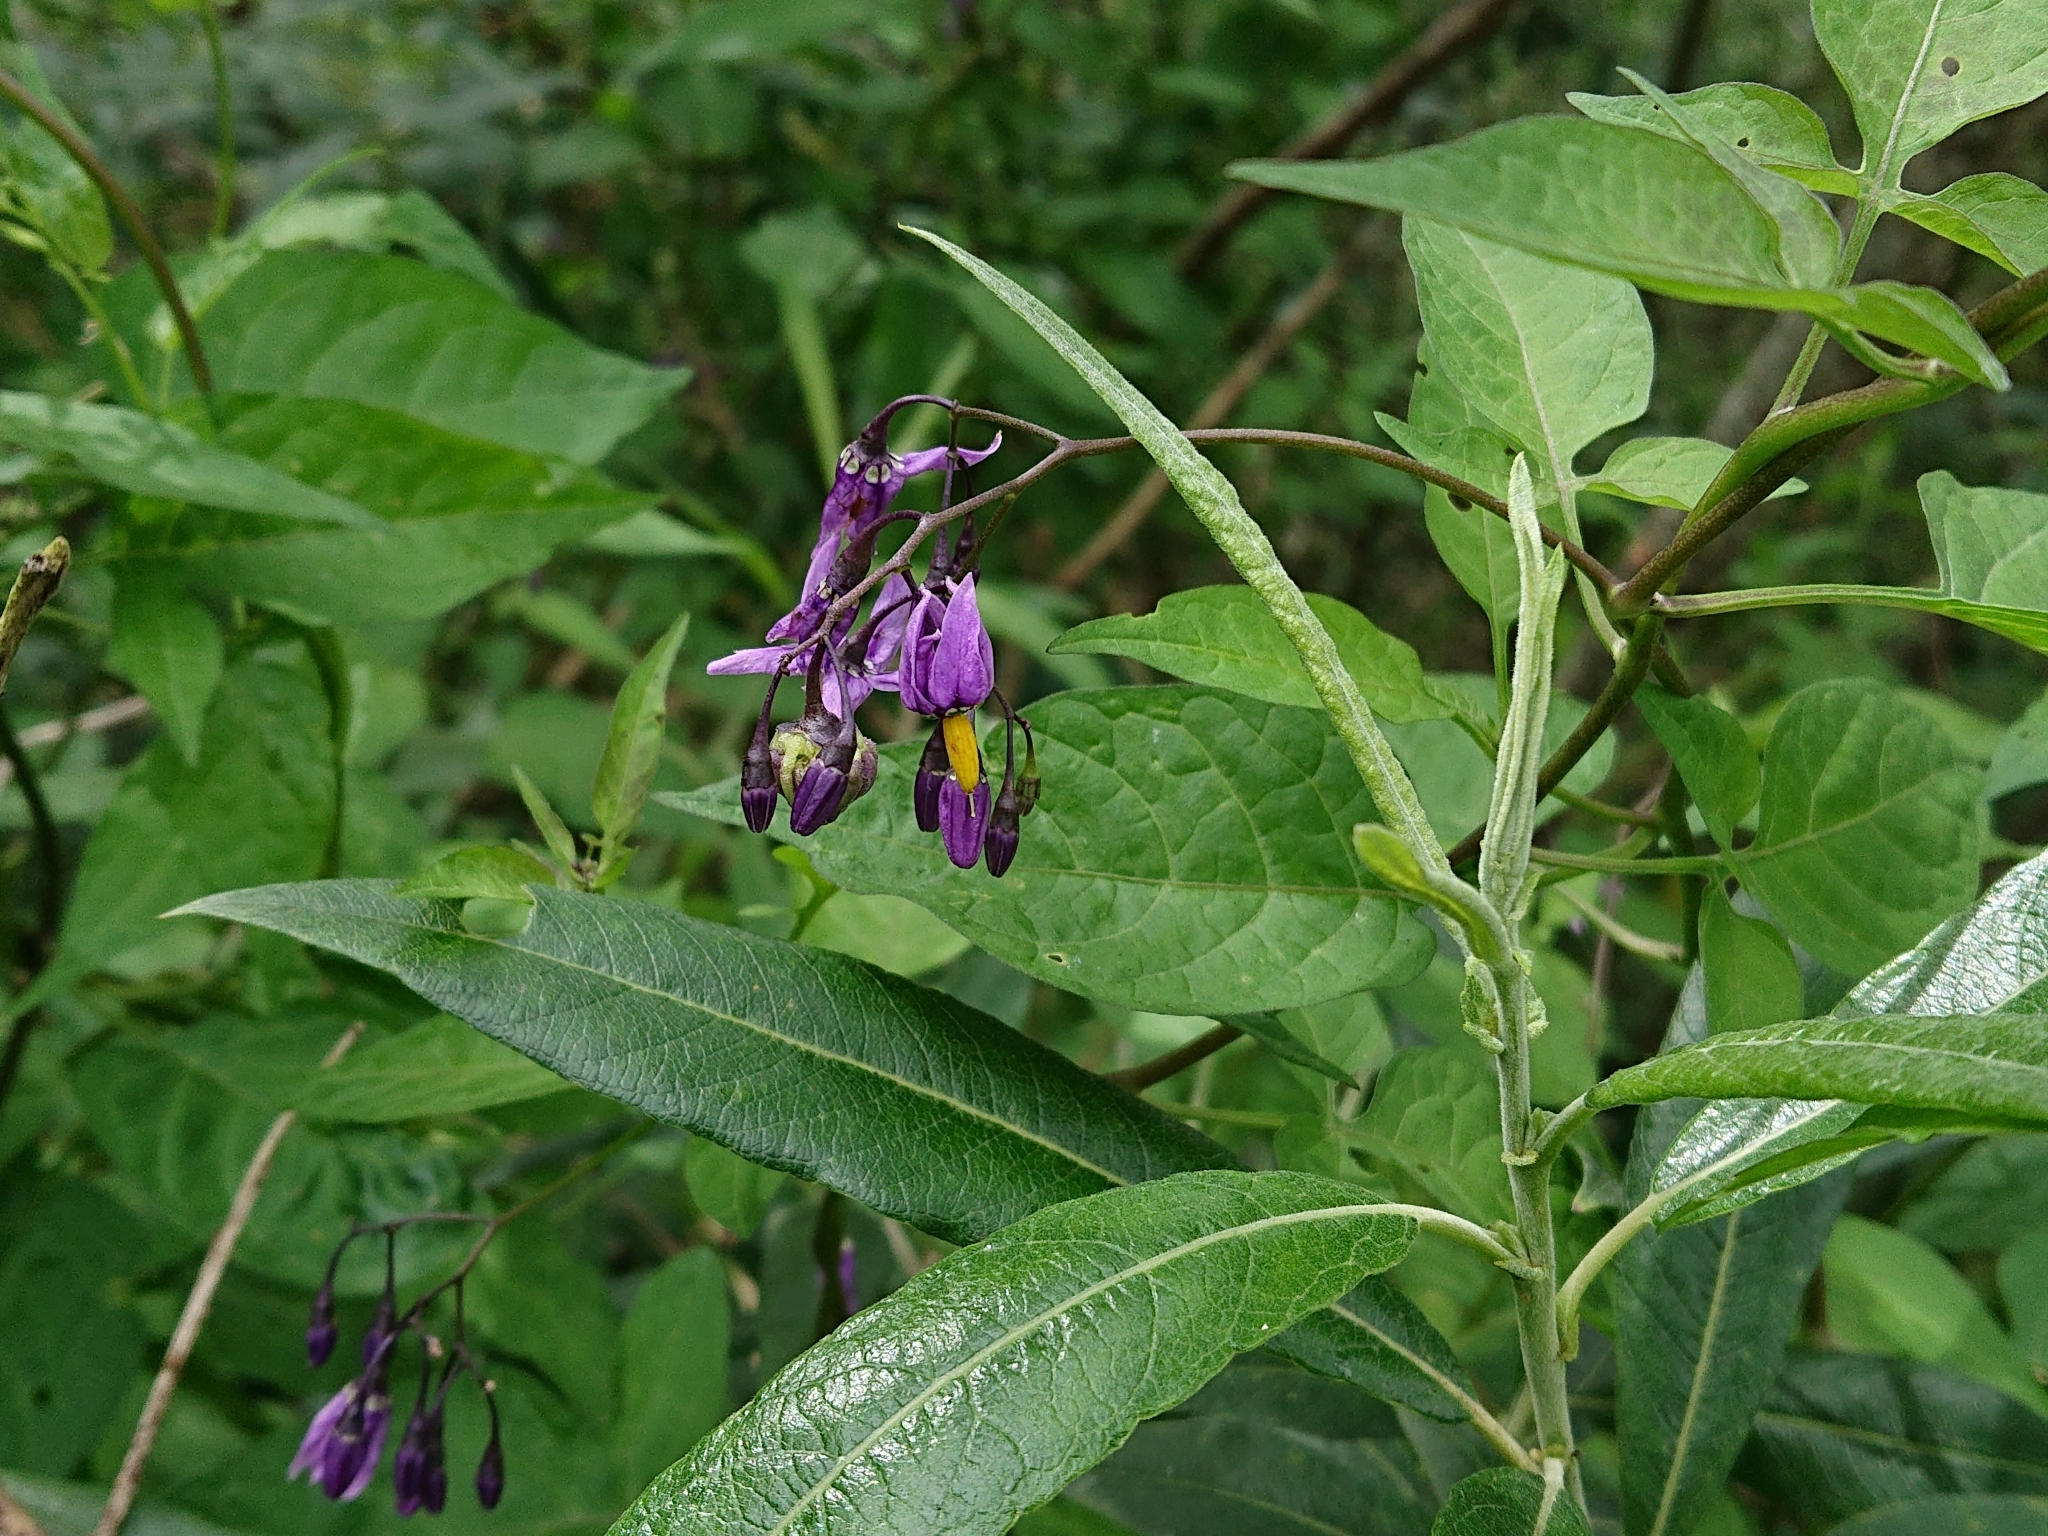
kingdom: Plantae
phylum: Tracheophyta
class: Magnoliopsida
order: Solanales
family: Solanaceae
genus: Solanum
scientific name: Solanum dulcamara
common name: Climbing nightshade
